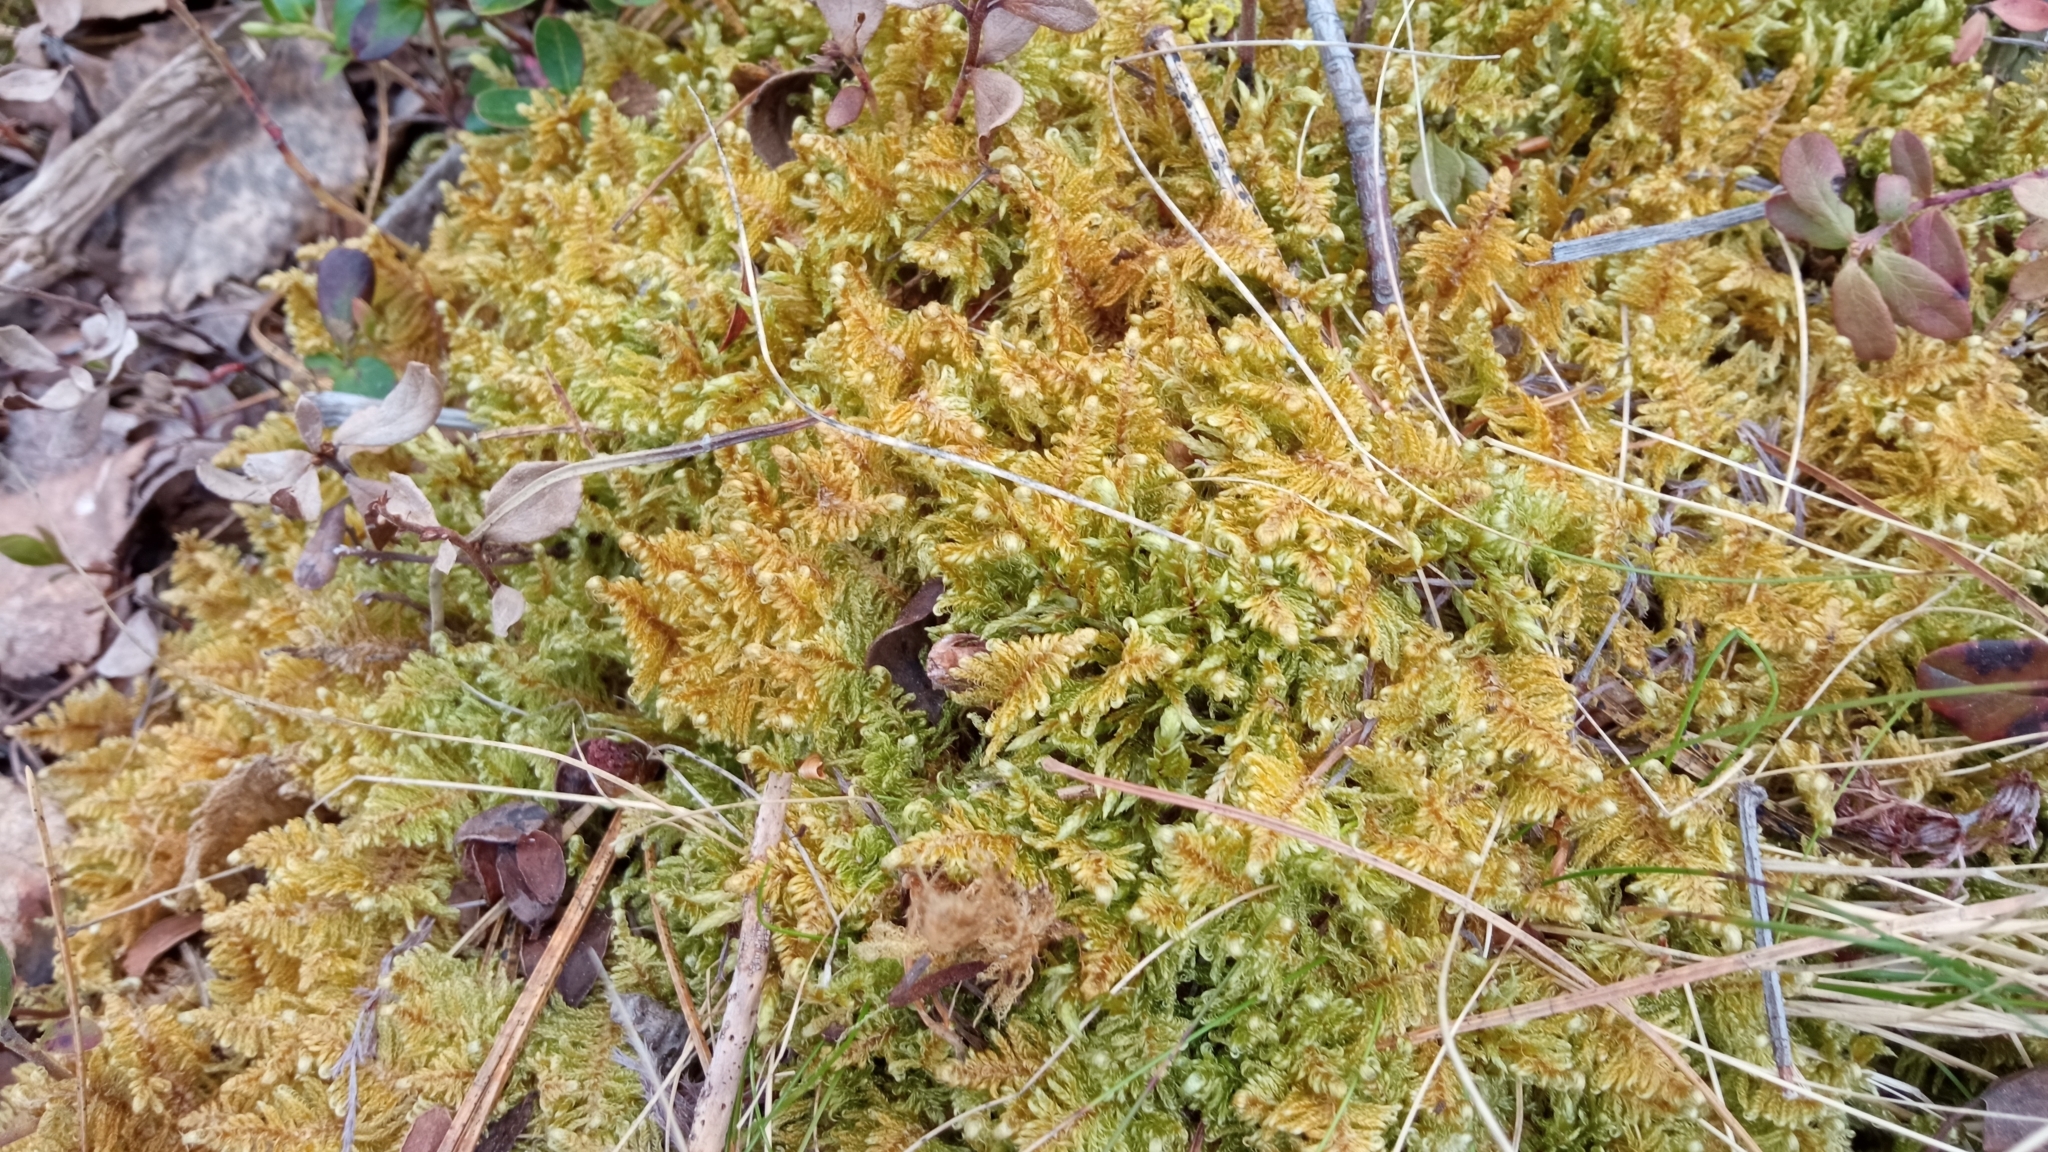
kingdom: Plantae
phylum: Bryophyta
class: Bryopsida
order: Hypnales
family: Pylaisiaceae
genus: Ptilium
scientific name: Ptilium crista-castrensis
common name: Knight's plume moss
